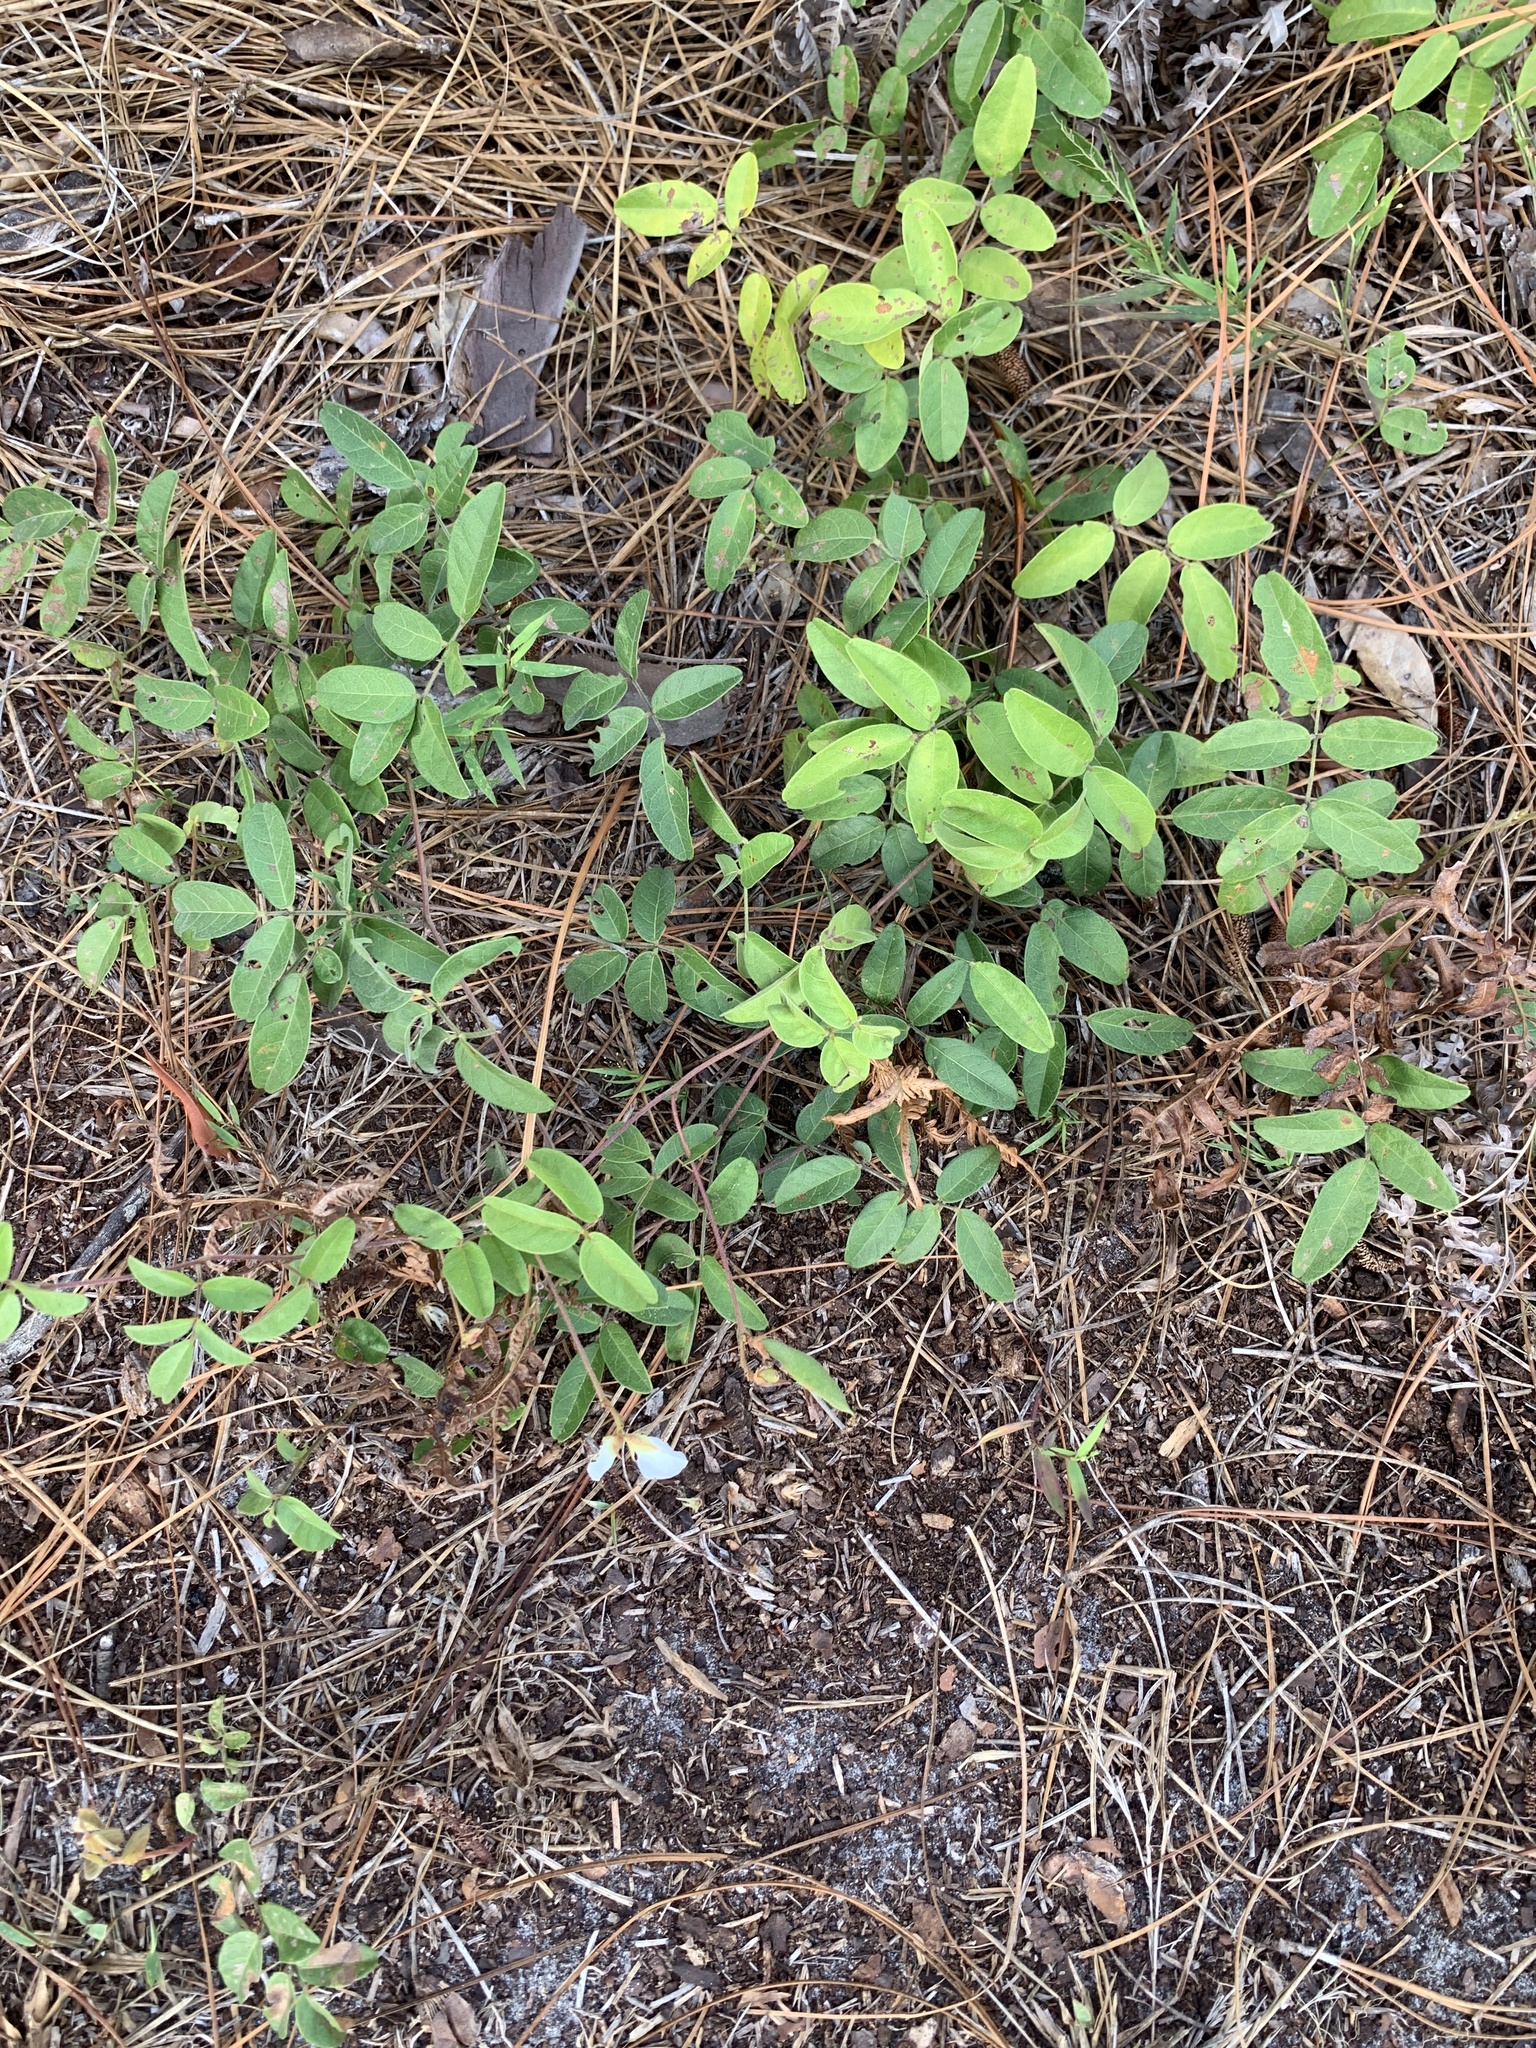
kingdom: Plantae
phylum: Tracheophyta
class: Magnoliopsida
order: Fabales
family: Fabaceae
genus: Galactia
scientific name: Galactia elliottii
